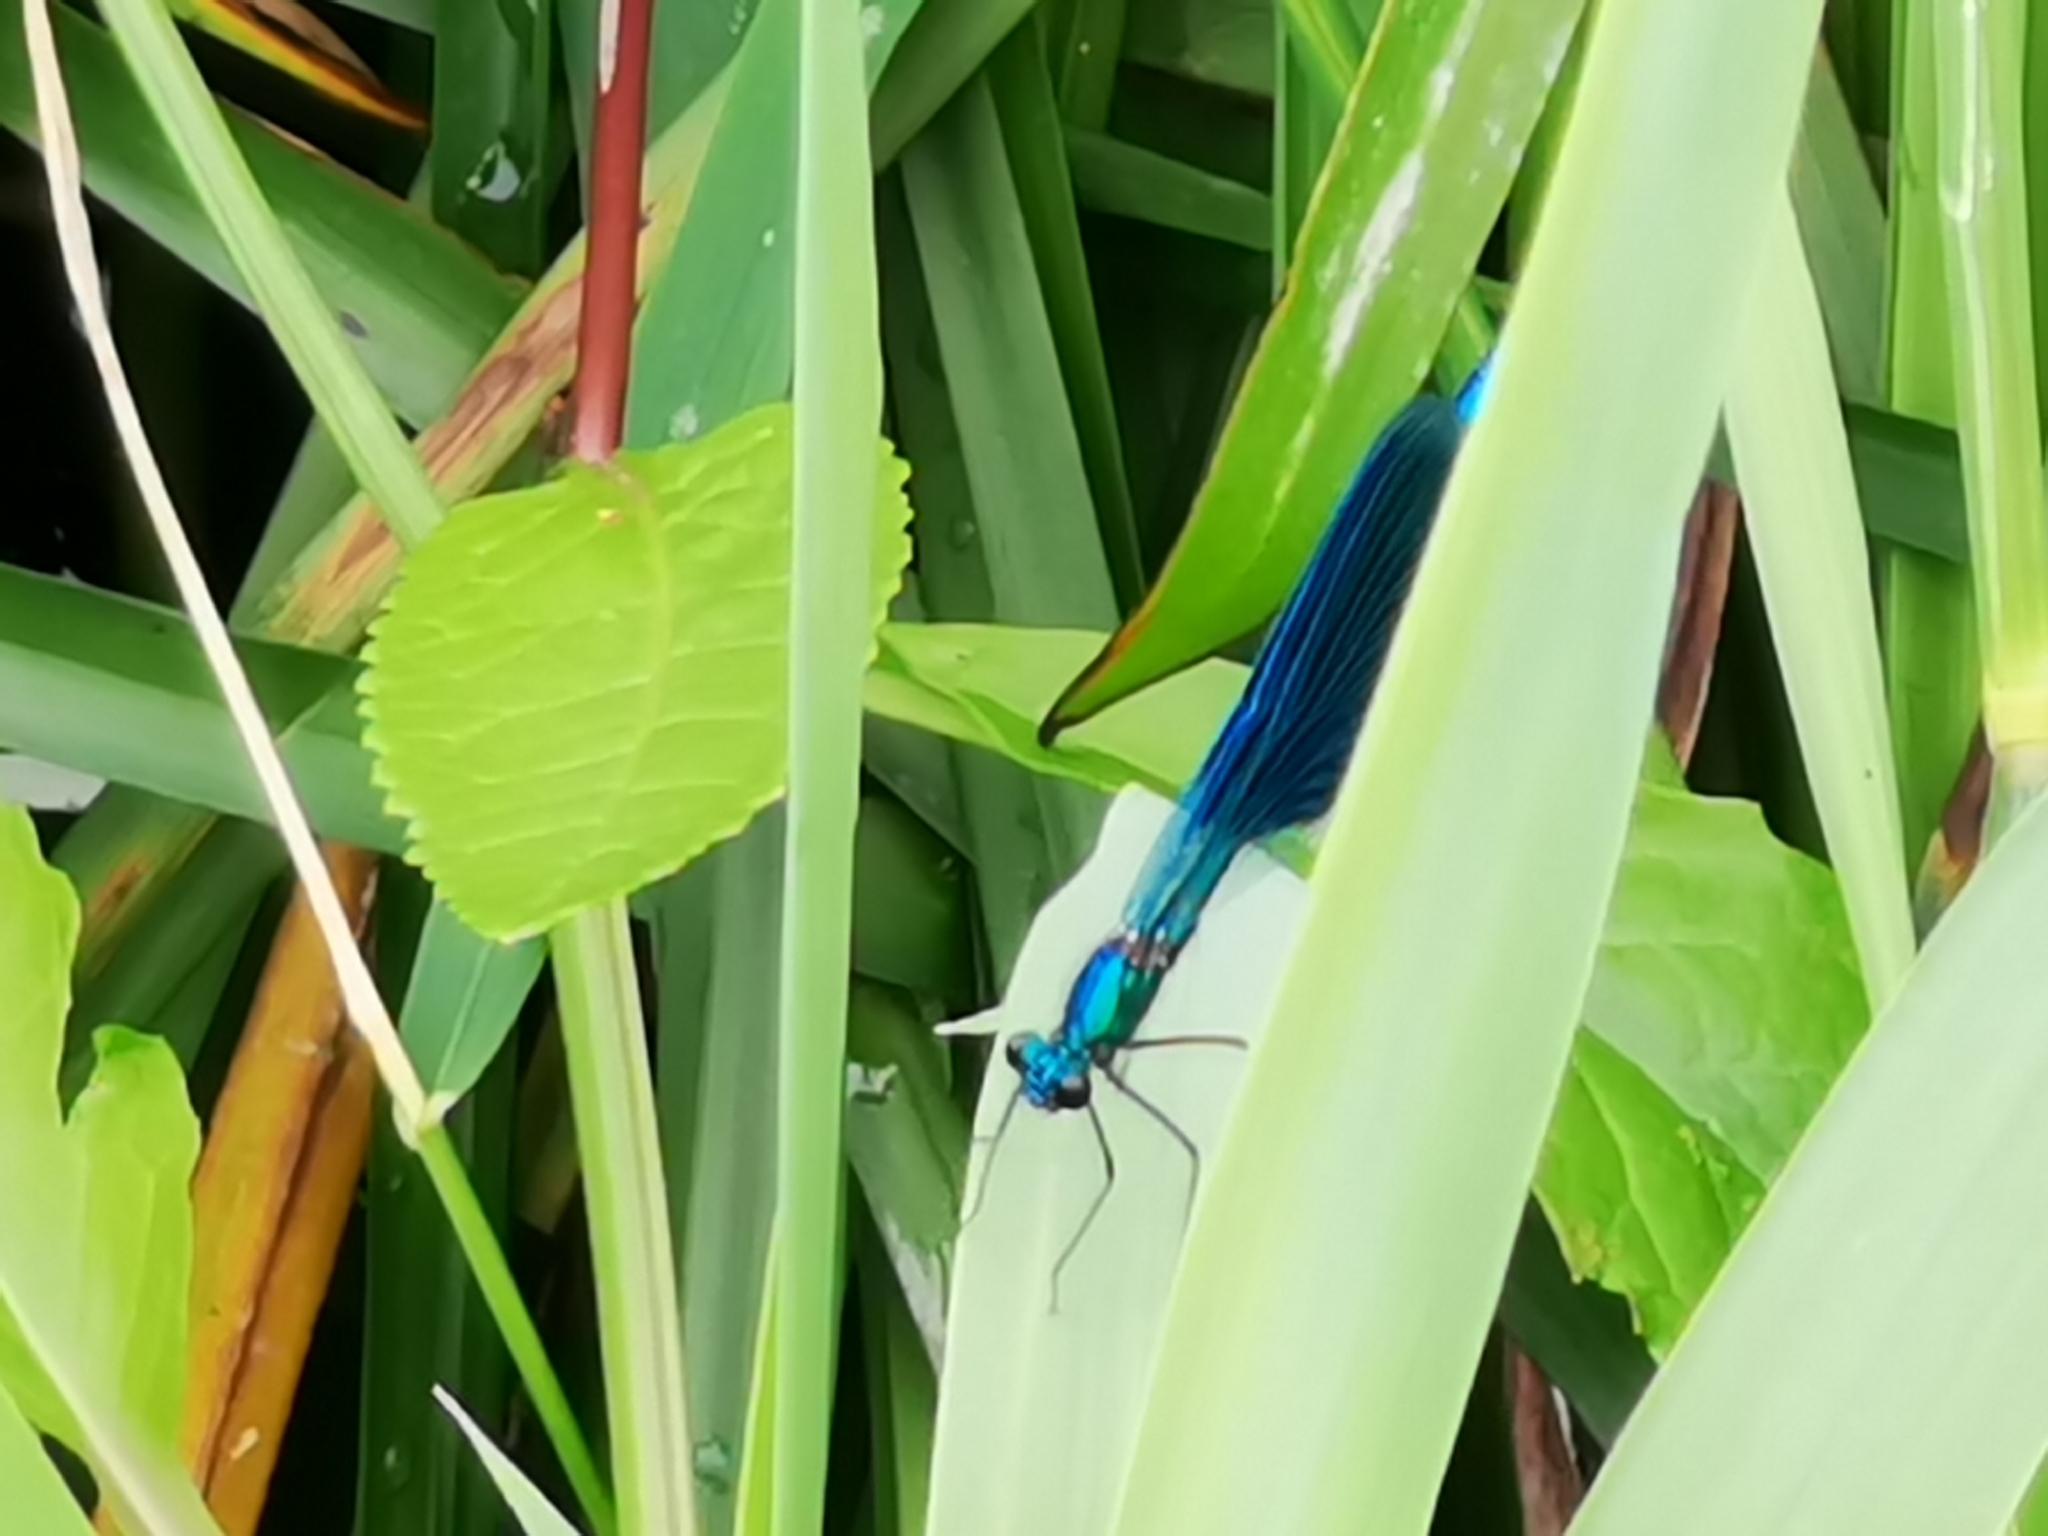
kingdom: Animalia
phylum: Arthropoda
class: Insecta
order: Odonata
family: Calopterygidae
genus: Calopteryx
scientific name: Calopteryx splendens
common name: Banded demoiselle
